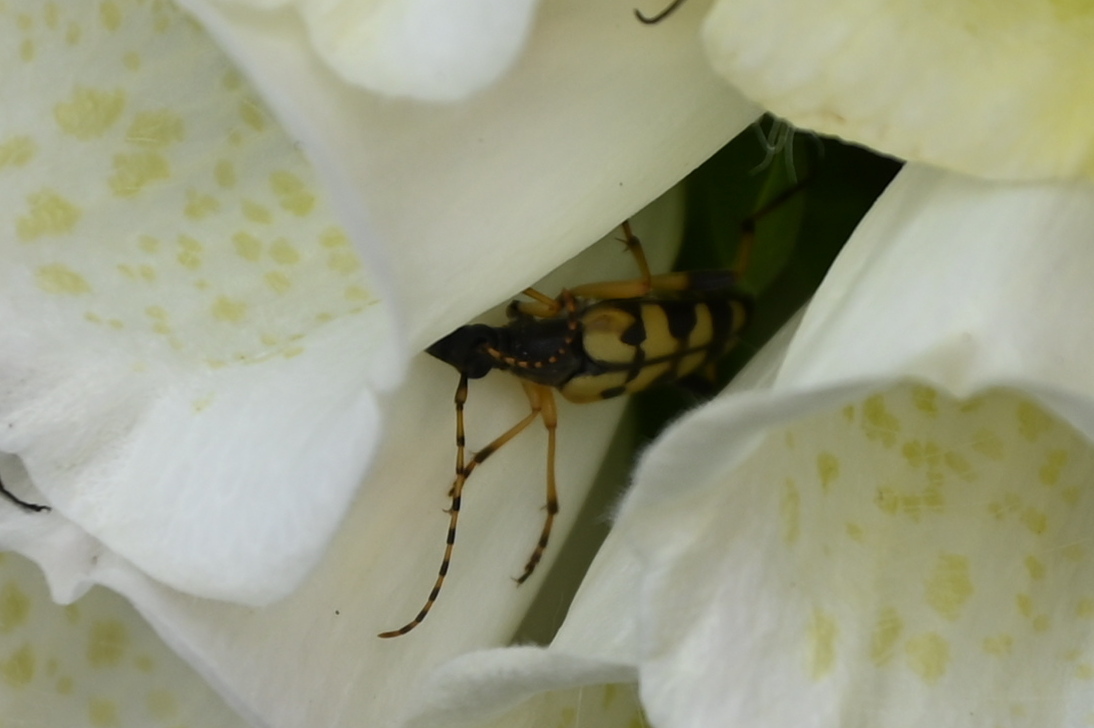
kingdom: Animalia
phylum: Arthropoda
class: Insecta
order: Coleoptera
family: Cerambycidae
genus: Rutpela
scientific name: Rutpela maculata
